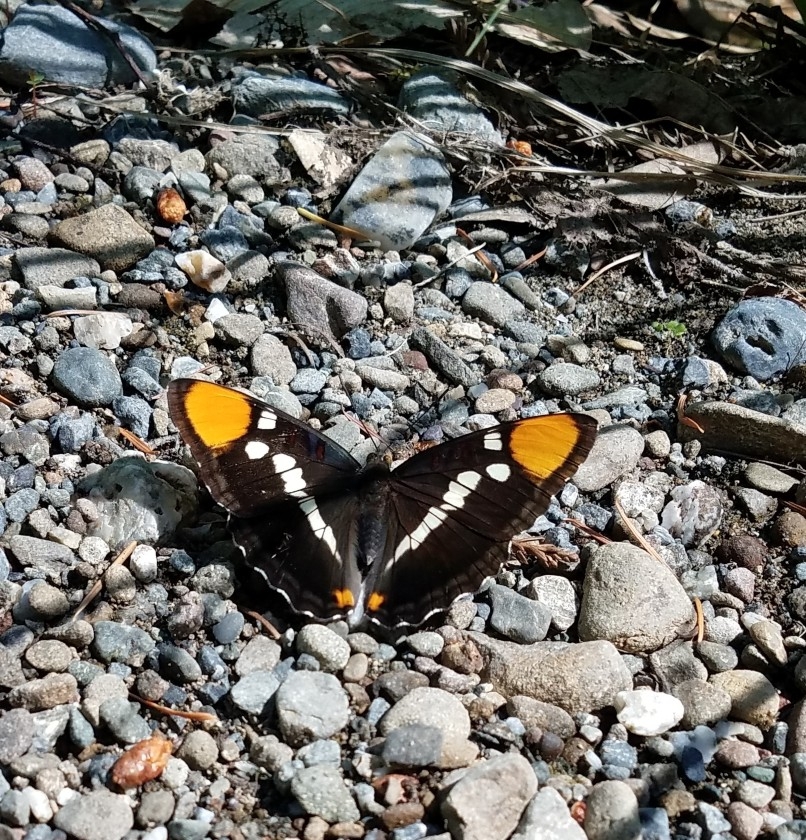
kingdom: Animalia
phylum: Arthropoda
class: Insecta
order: Lepidoptera
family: Nymphalidae
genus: Limenitis
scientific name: Limenitis bredowii
